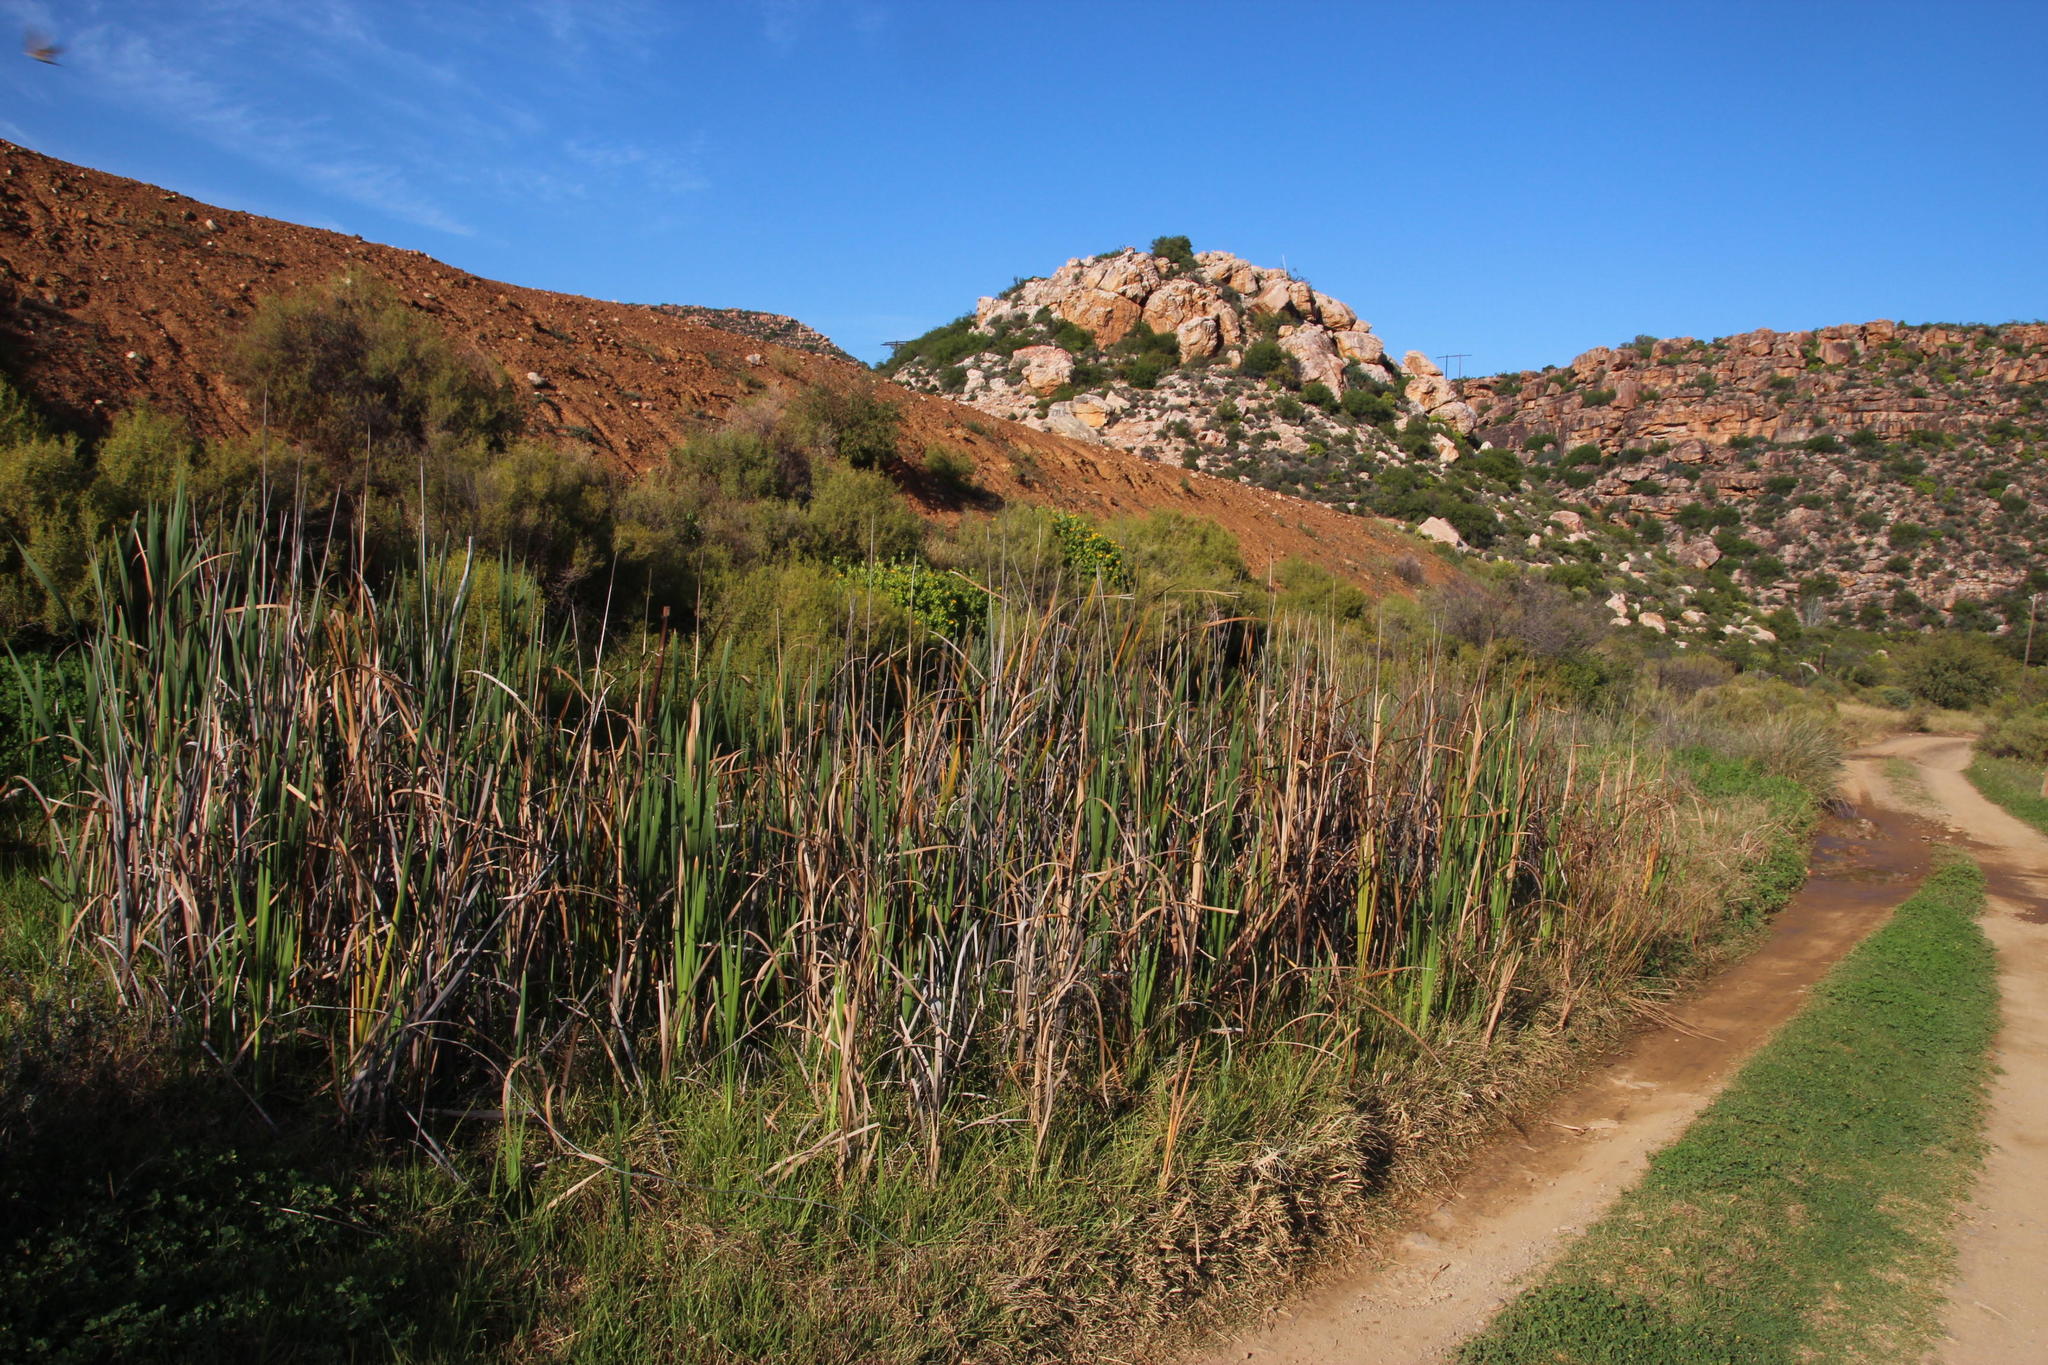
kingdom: Plantae
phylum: Tracheophyta
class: Liliopsida
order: Poales
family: Typhaceae
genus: Typha
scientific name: Typha capensis
